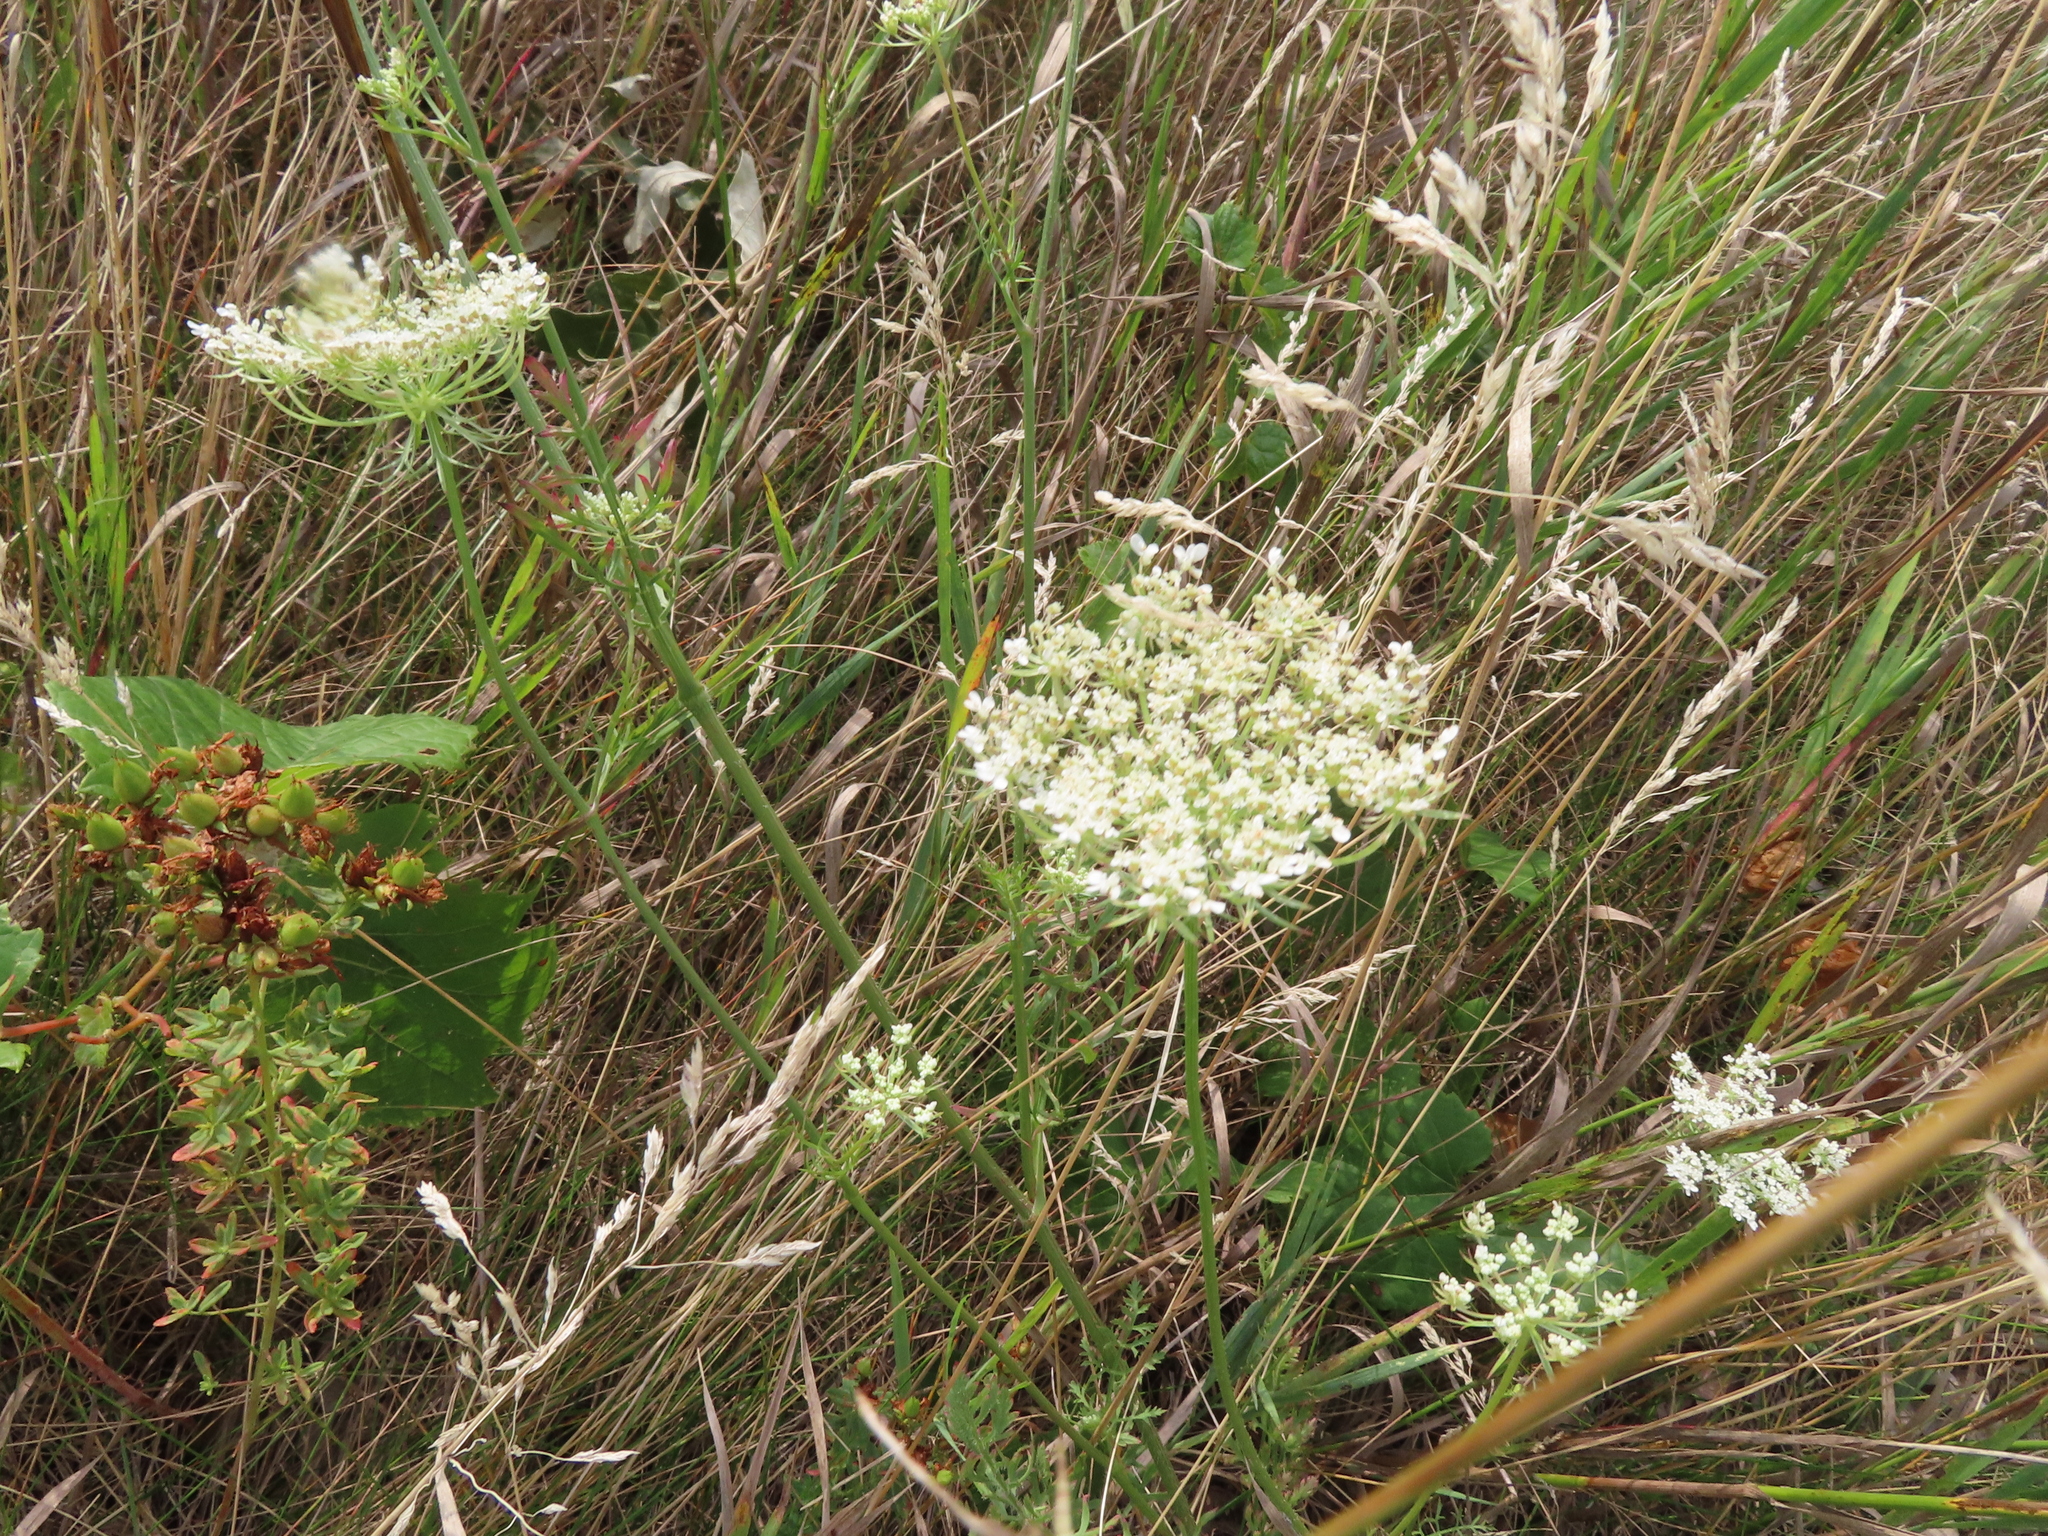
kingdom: Plantae
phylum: Tracheophyta
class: Magnoliopsida
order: Apiales
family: Apiaceae
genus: Daucus
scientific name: Daucus carota
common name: Wild carrot
